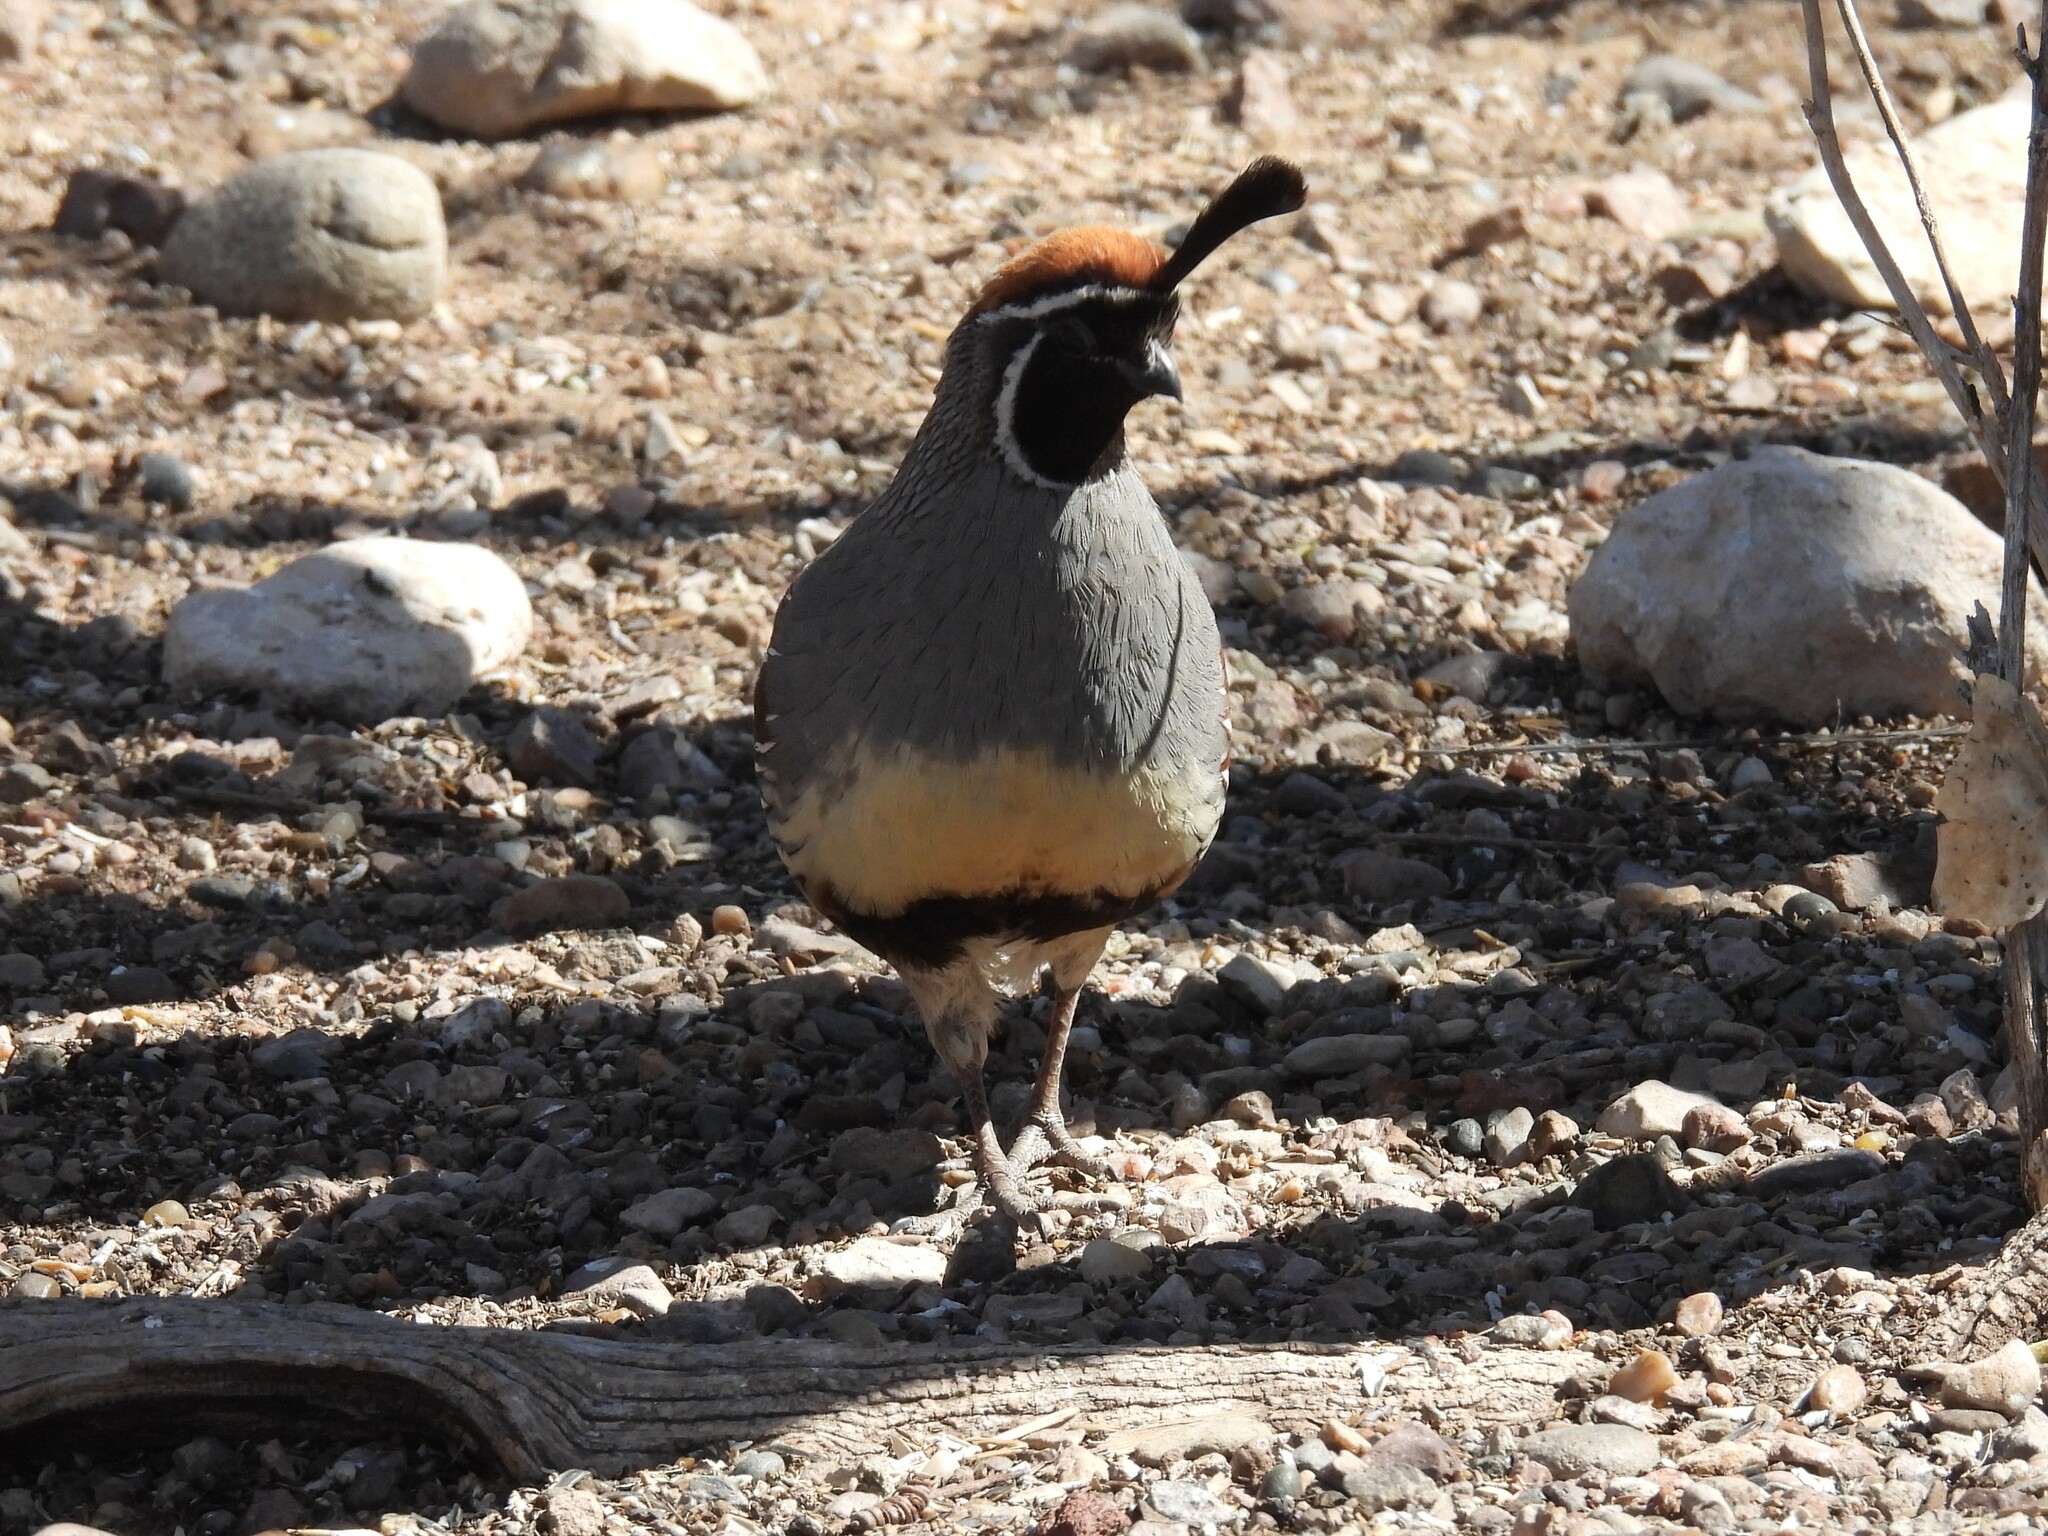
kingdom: Animalia
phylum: Chordata
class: Aves
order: Galliformes
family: Odontophoridae
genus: Callipepla
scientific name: Callipepla gambelii
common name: Gambel's quail
